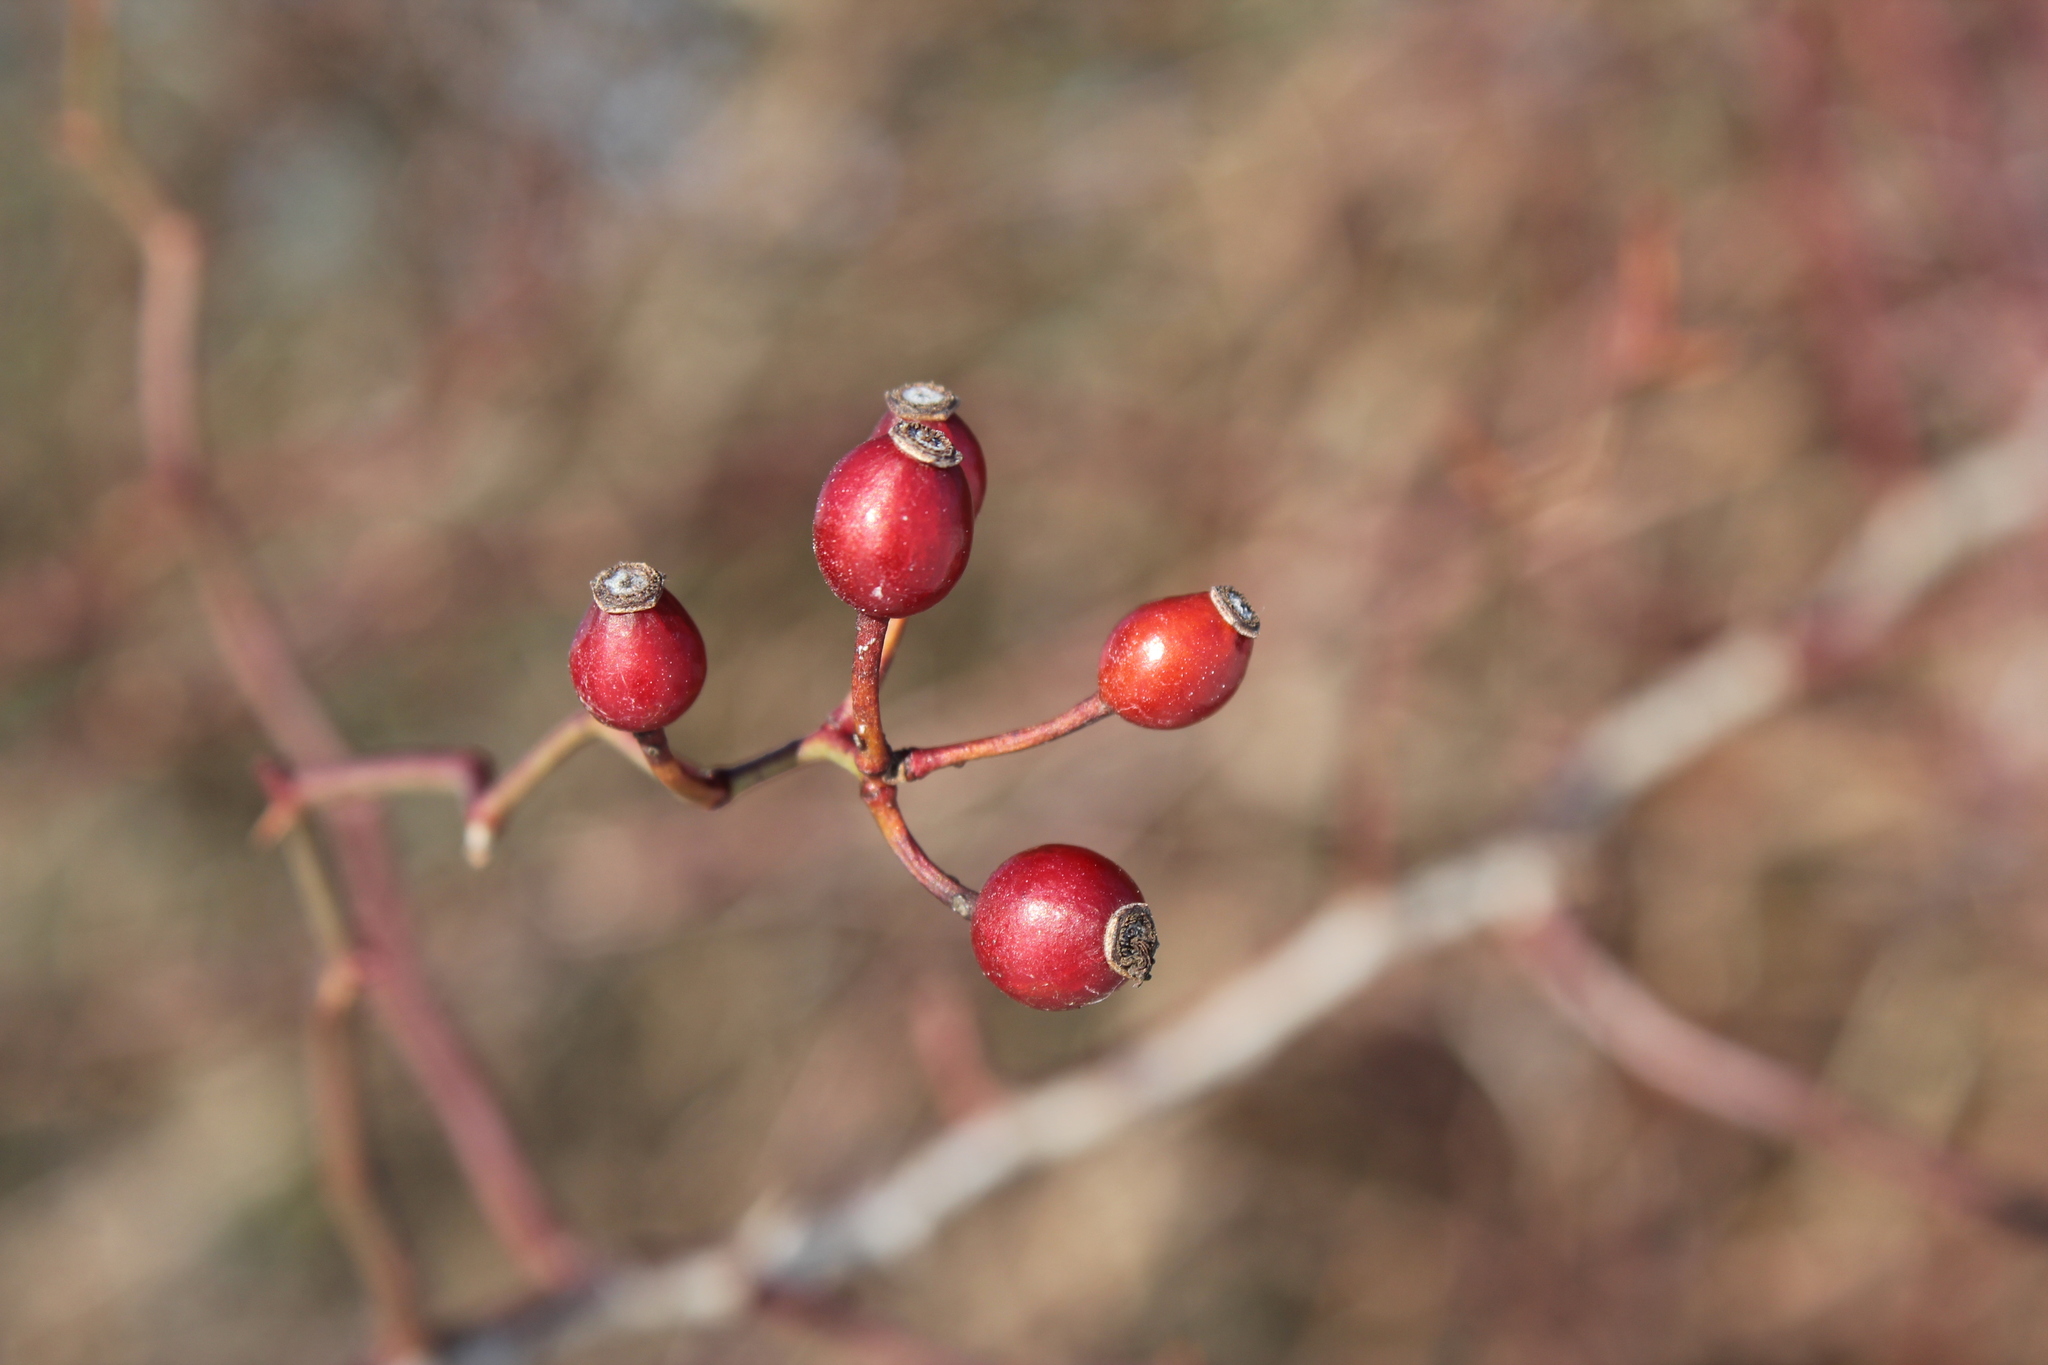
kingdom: Plantae
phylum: Tracheophyta
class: Magnoliopsida
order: Rosales
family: Rosaceae
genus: Rosa
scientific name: Rosa multiflora
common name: Multiflora rose
